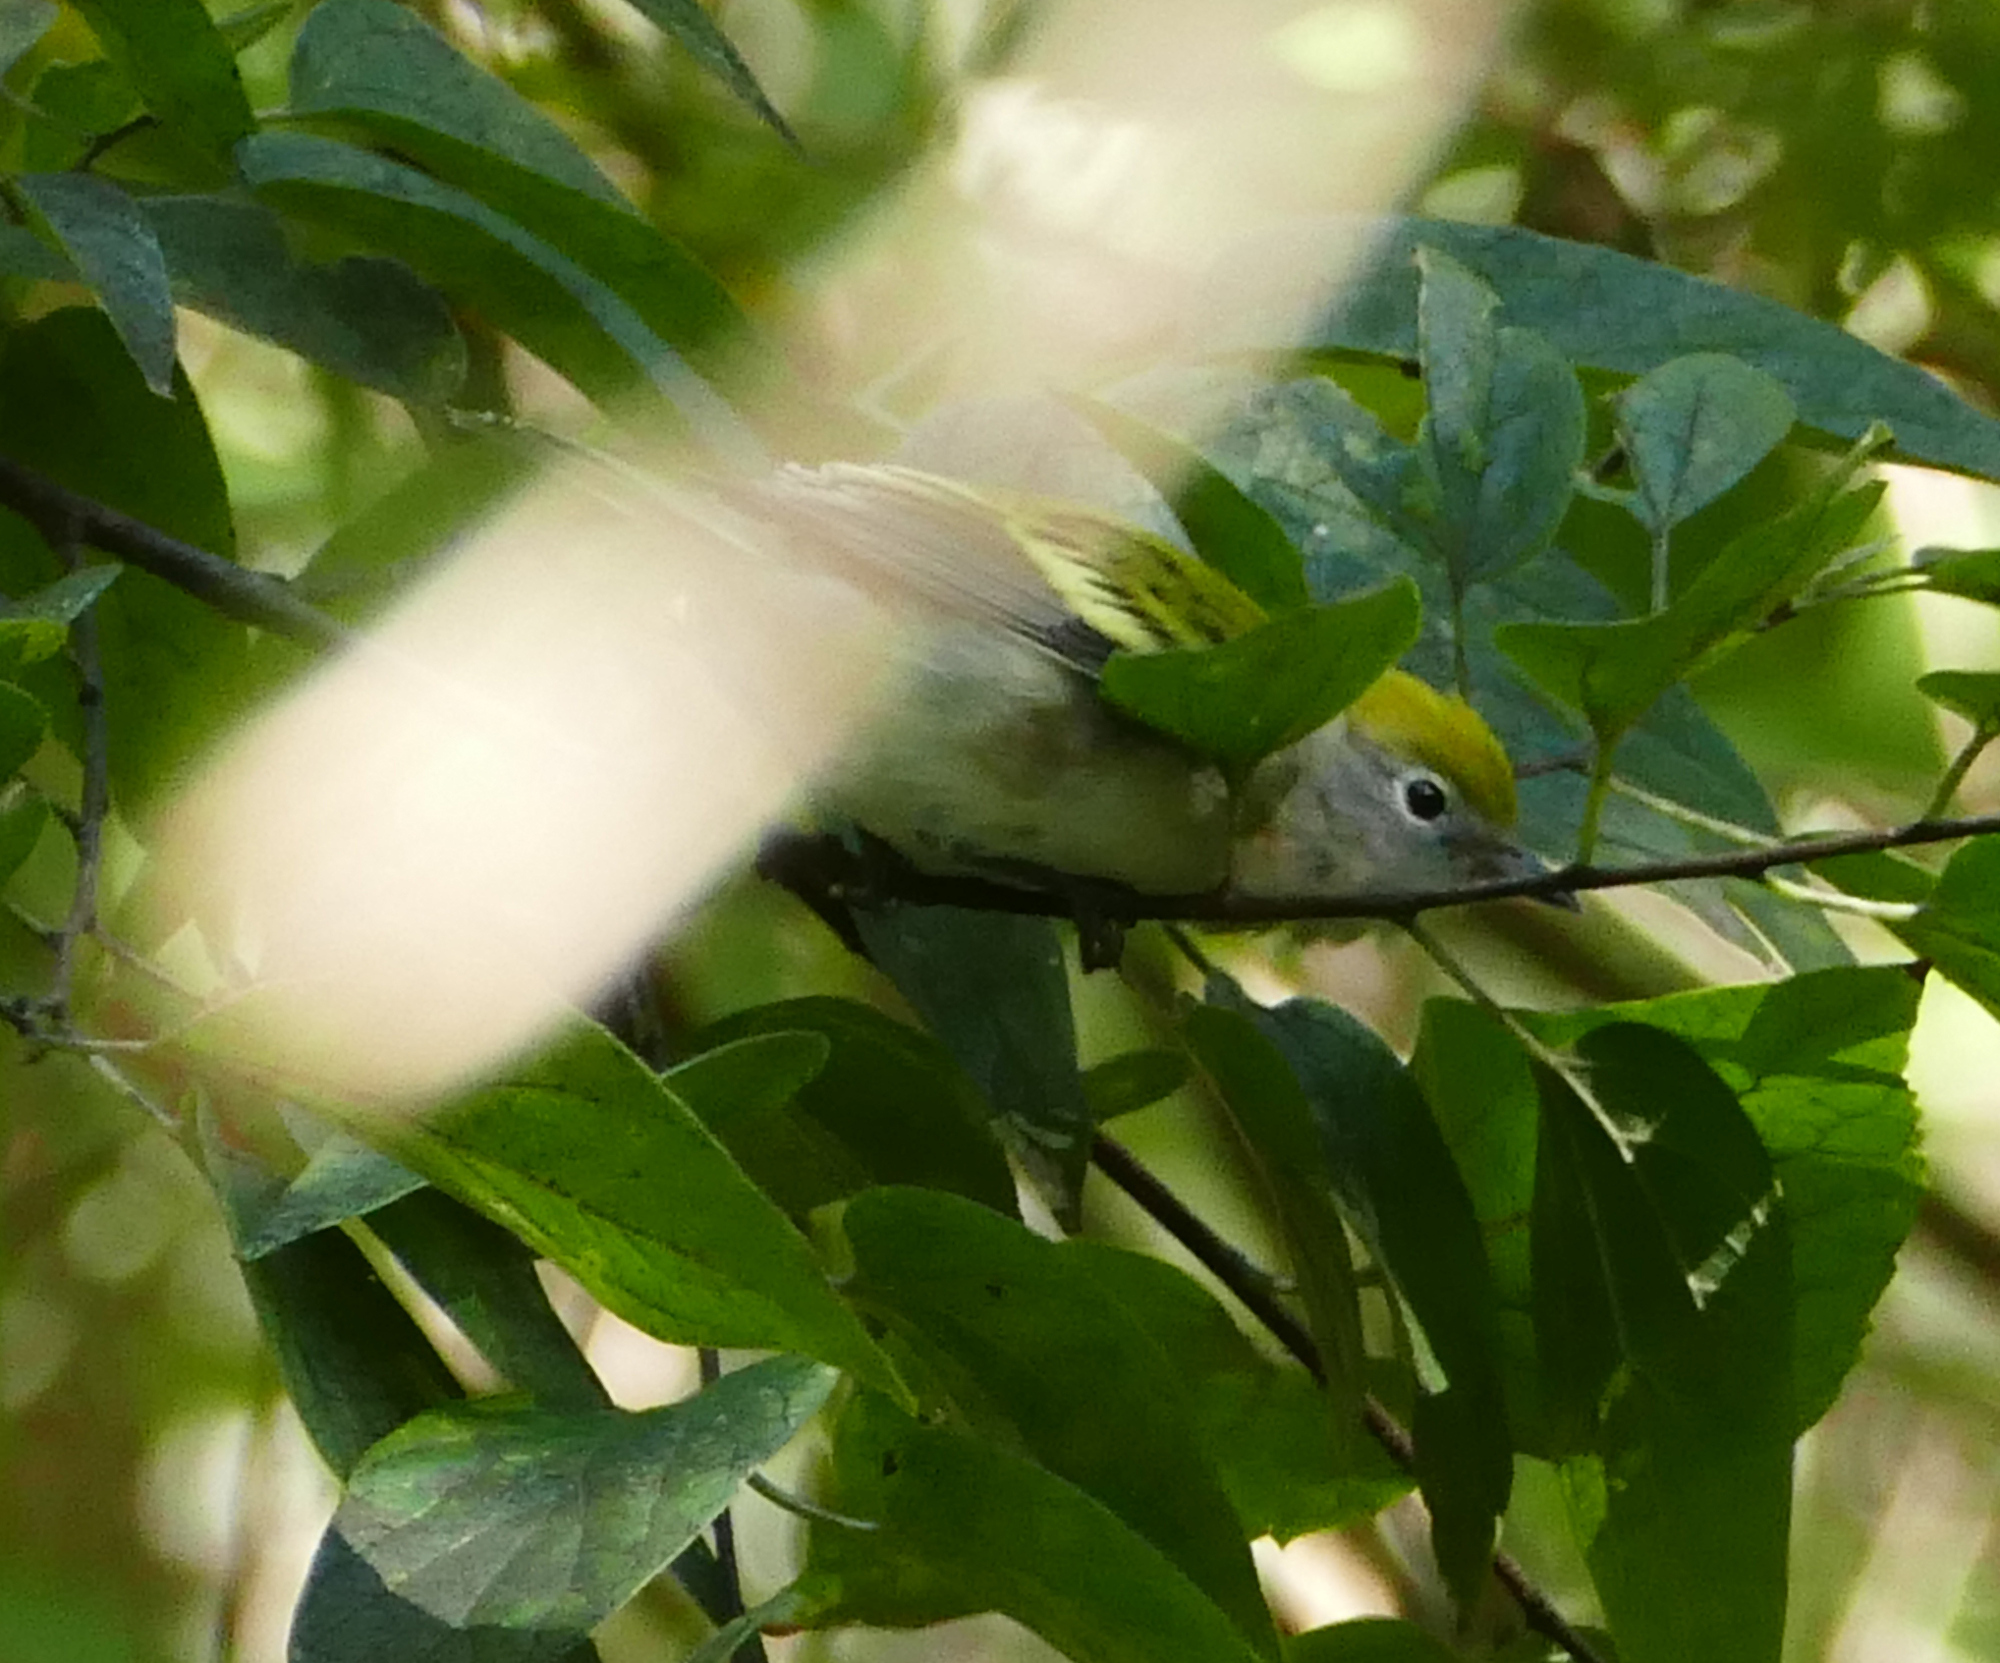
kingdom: Animalia
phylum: Chordata
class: Aves
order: Passeriformes
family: Parulidae
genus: Setophaga
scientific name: Setophaga pensylvanica
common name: Chestnut-sided warbler
